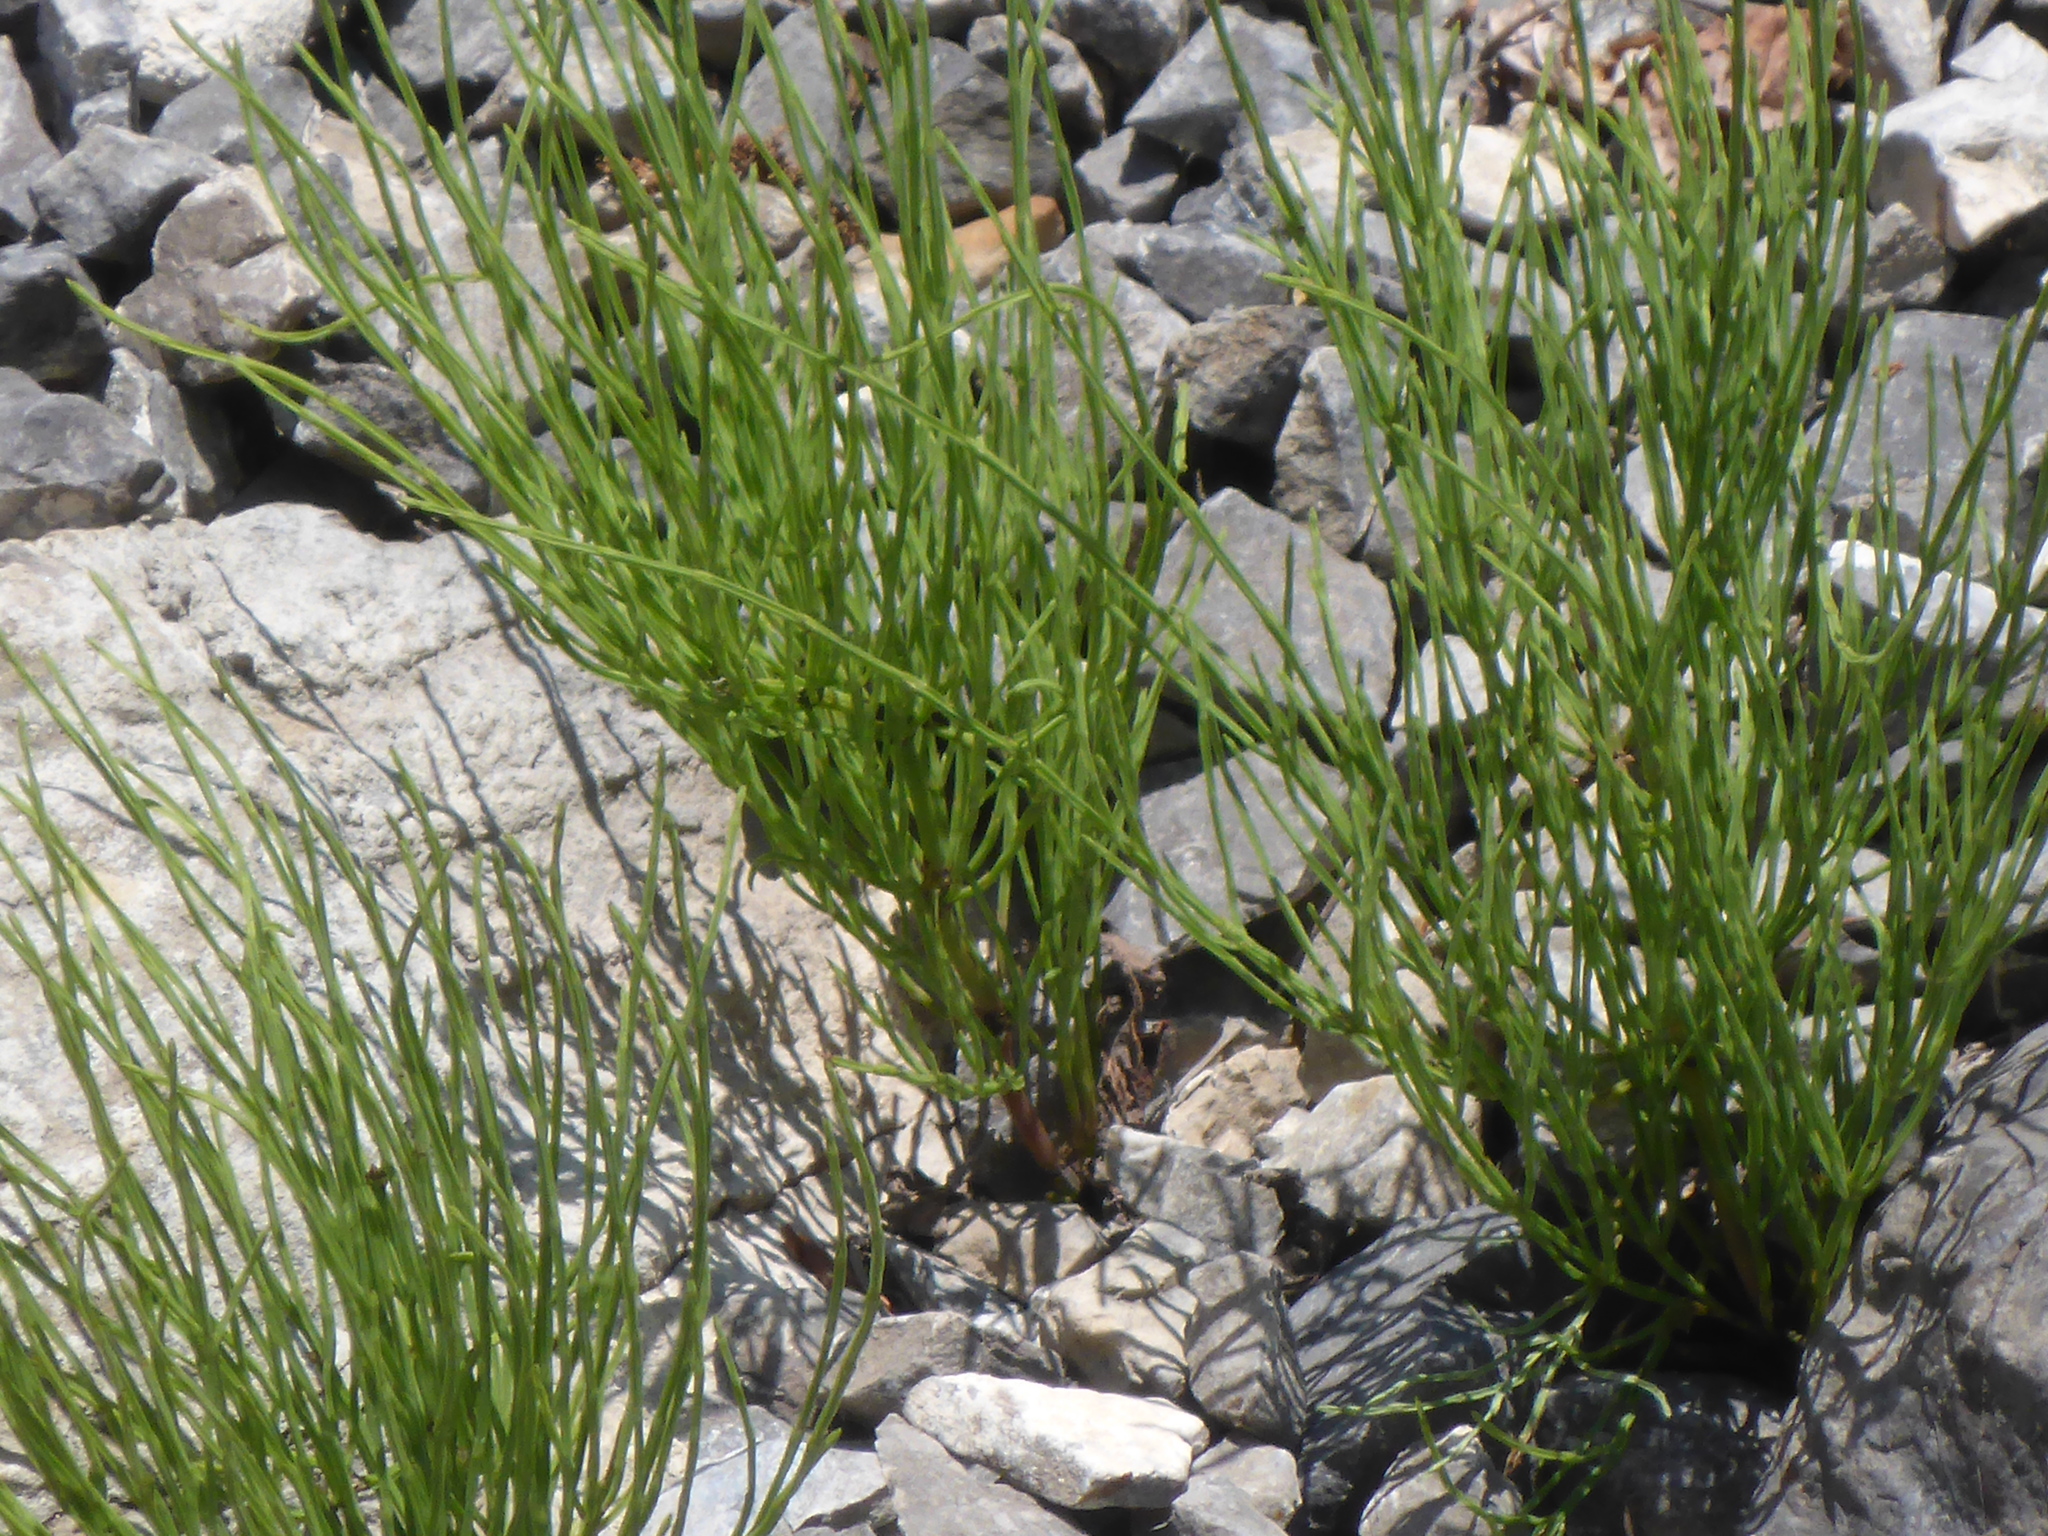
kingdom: Plantae
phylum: Tracheophyta
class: Polypodiopsida
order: Equisetales
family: Equisetaceae
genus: Equisetum
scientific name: Equisetum arvense
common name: Field horsetail
